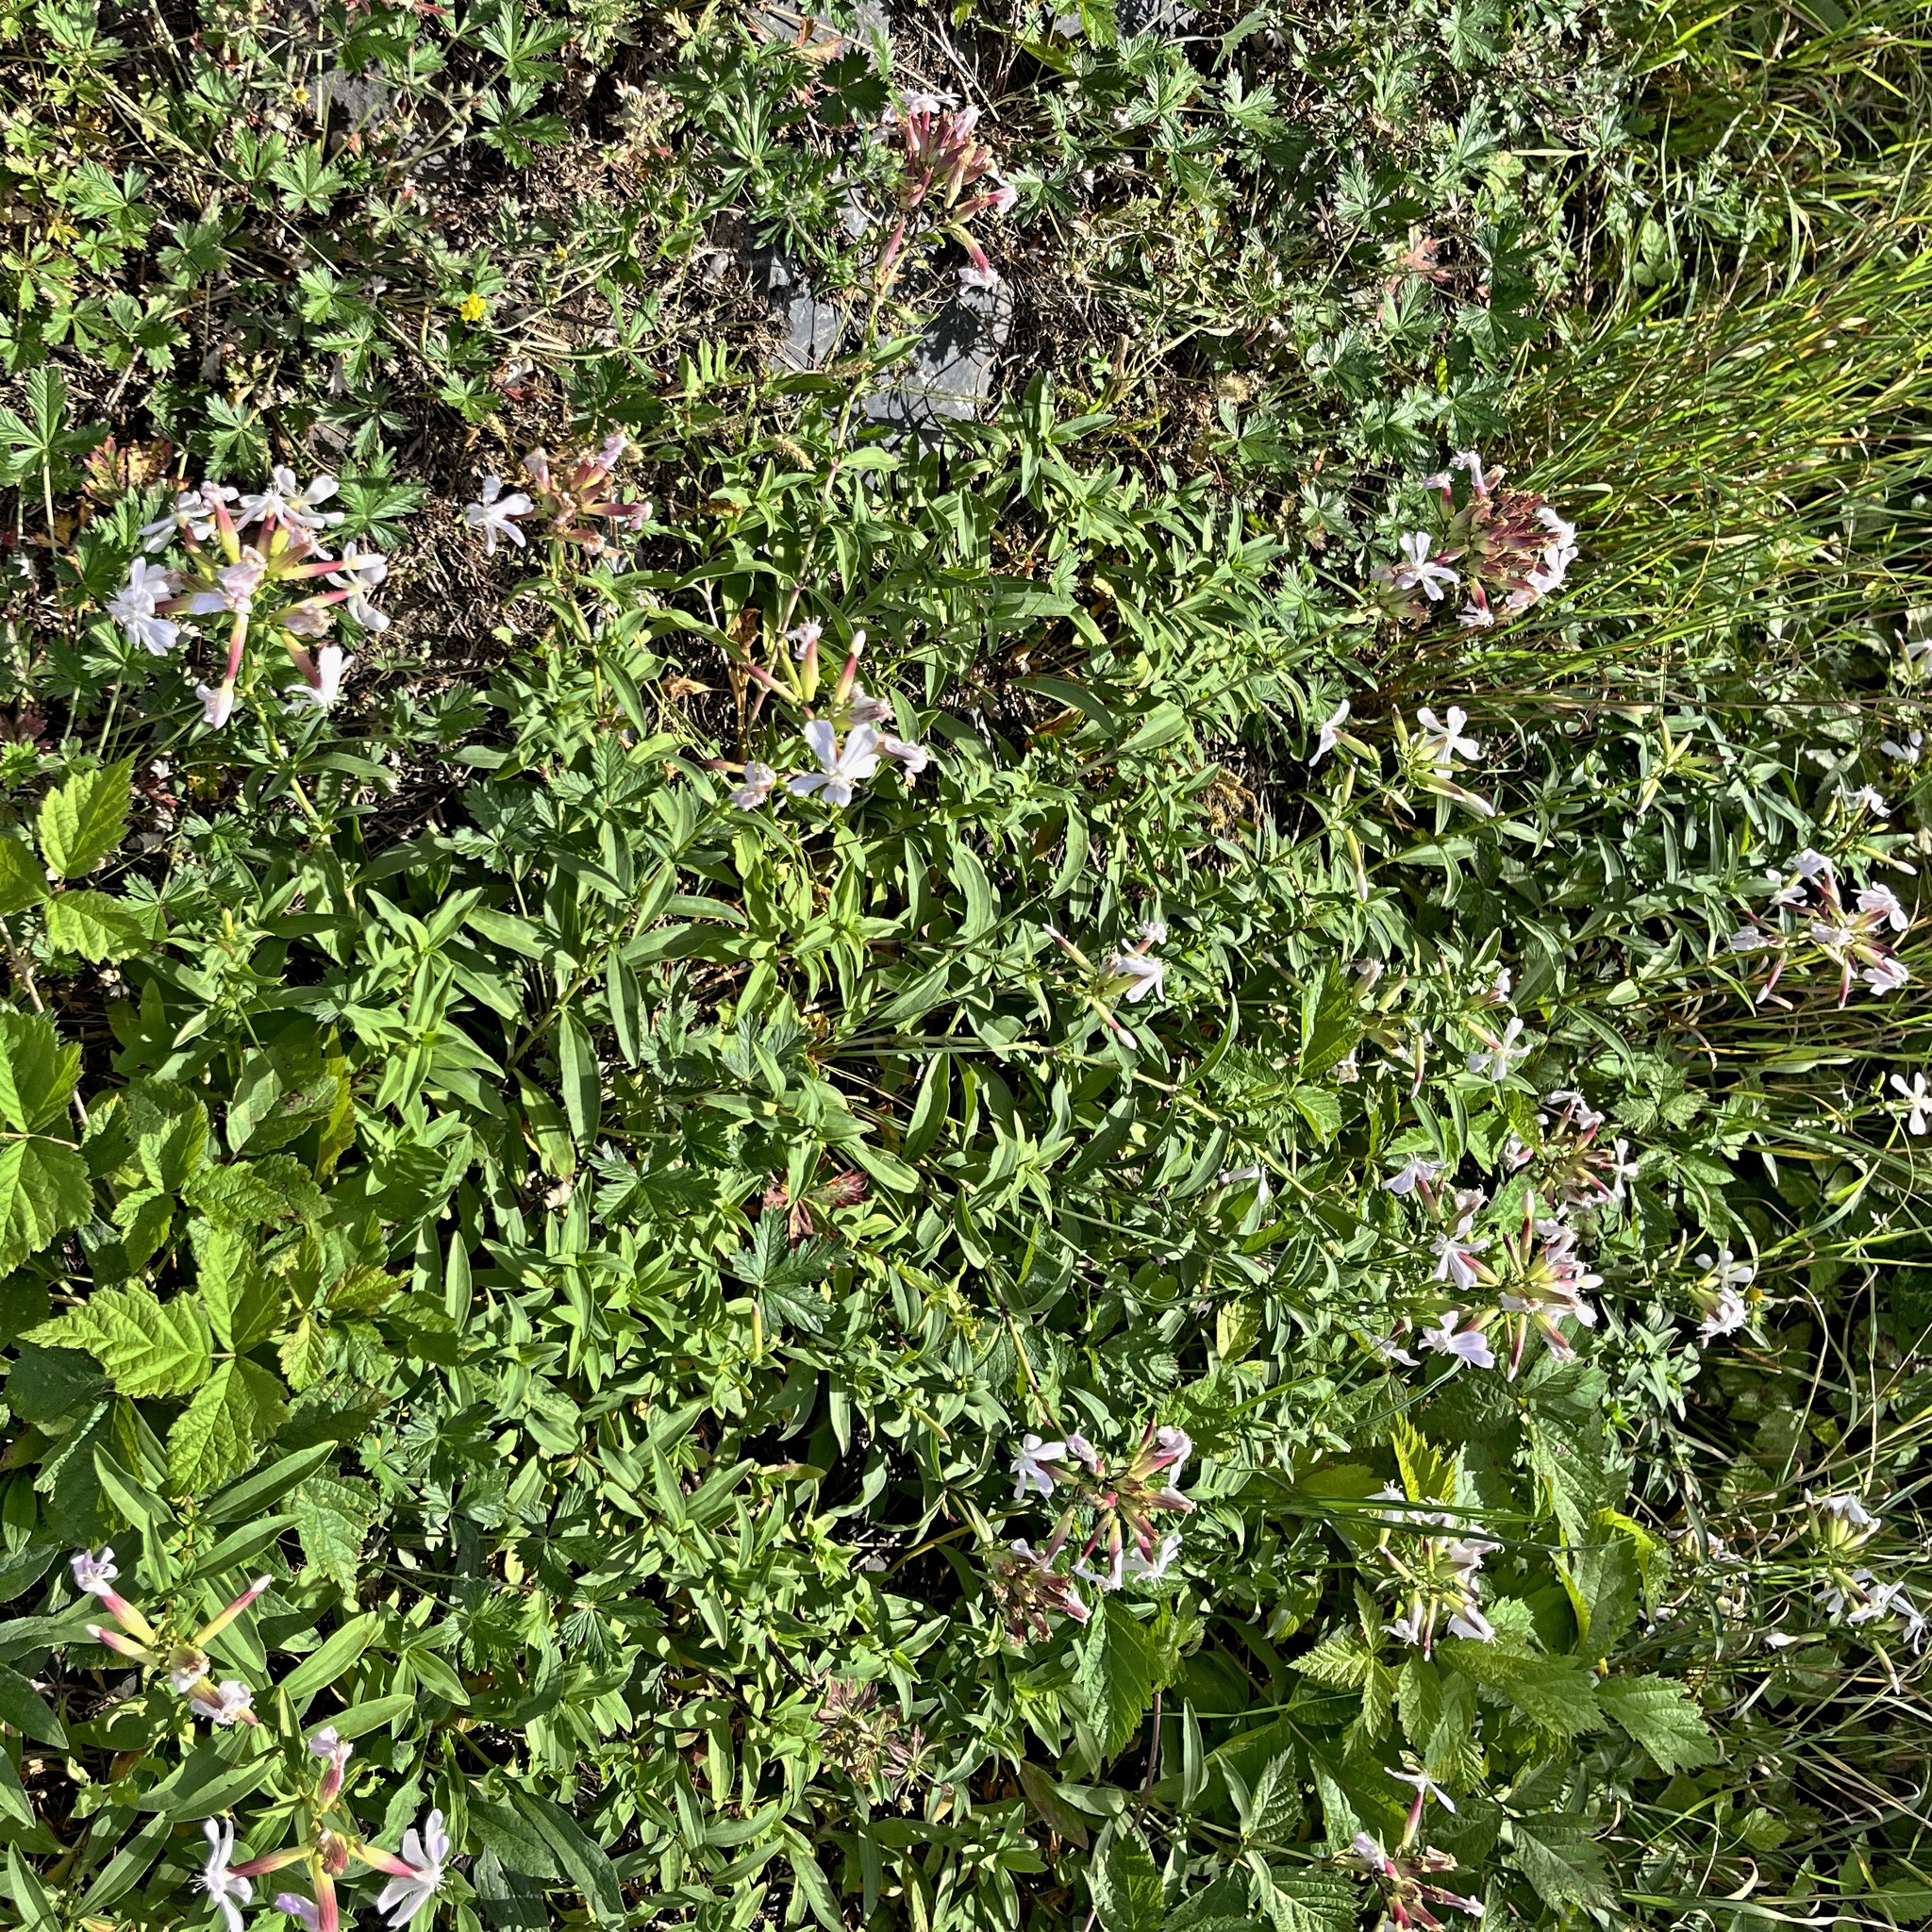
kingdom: Plantae
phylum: Tracheophyta
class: Magnoliopsida
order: Caryophyllales
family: Caryophyllaceae
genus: Saponaria
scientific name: Saponaria officinalis
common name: Soapwort
